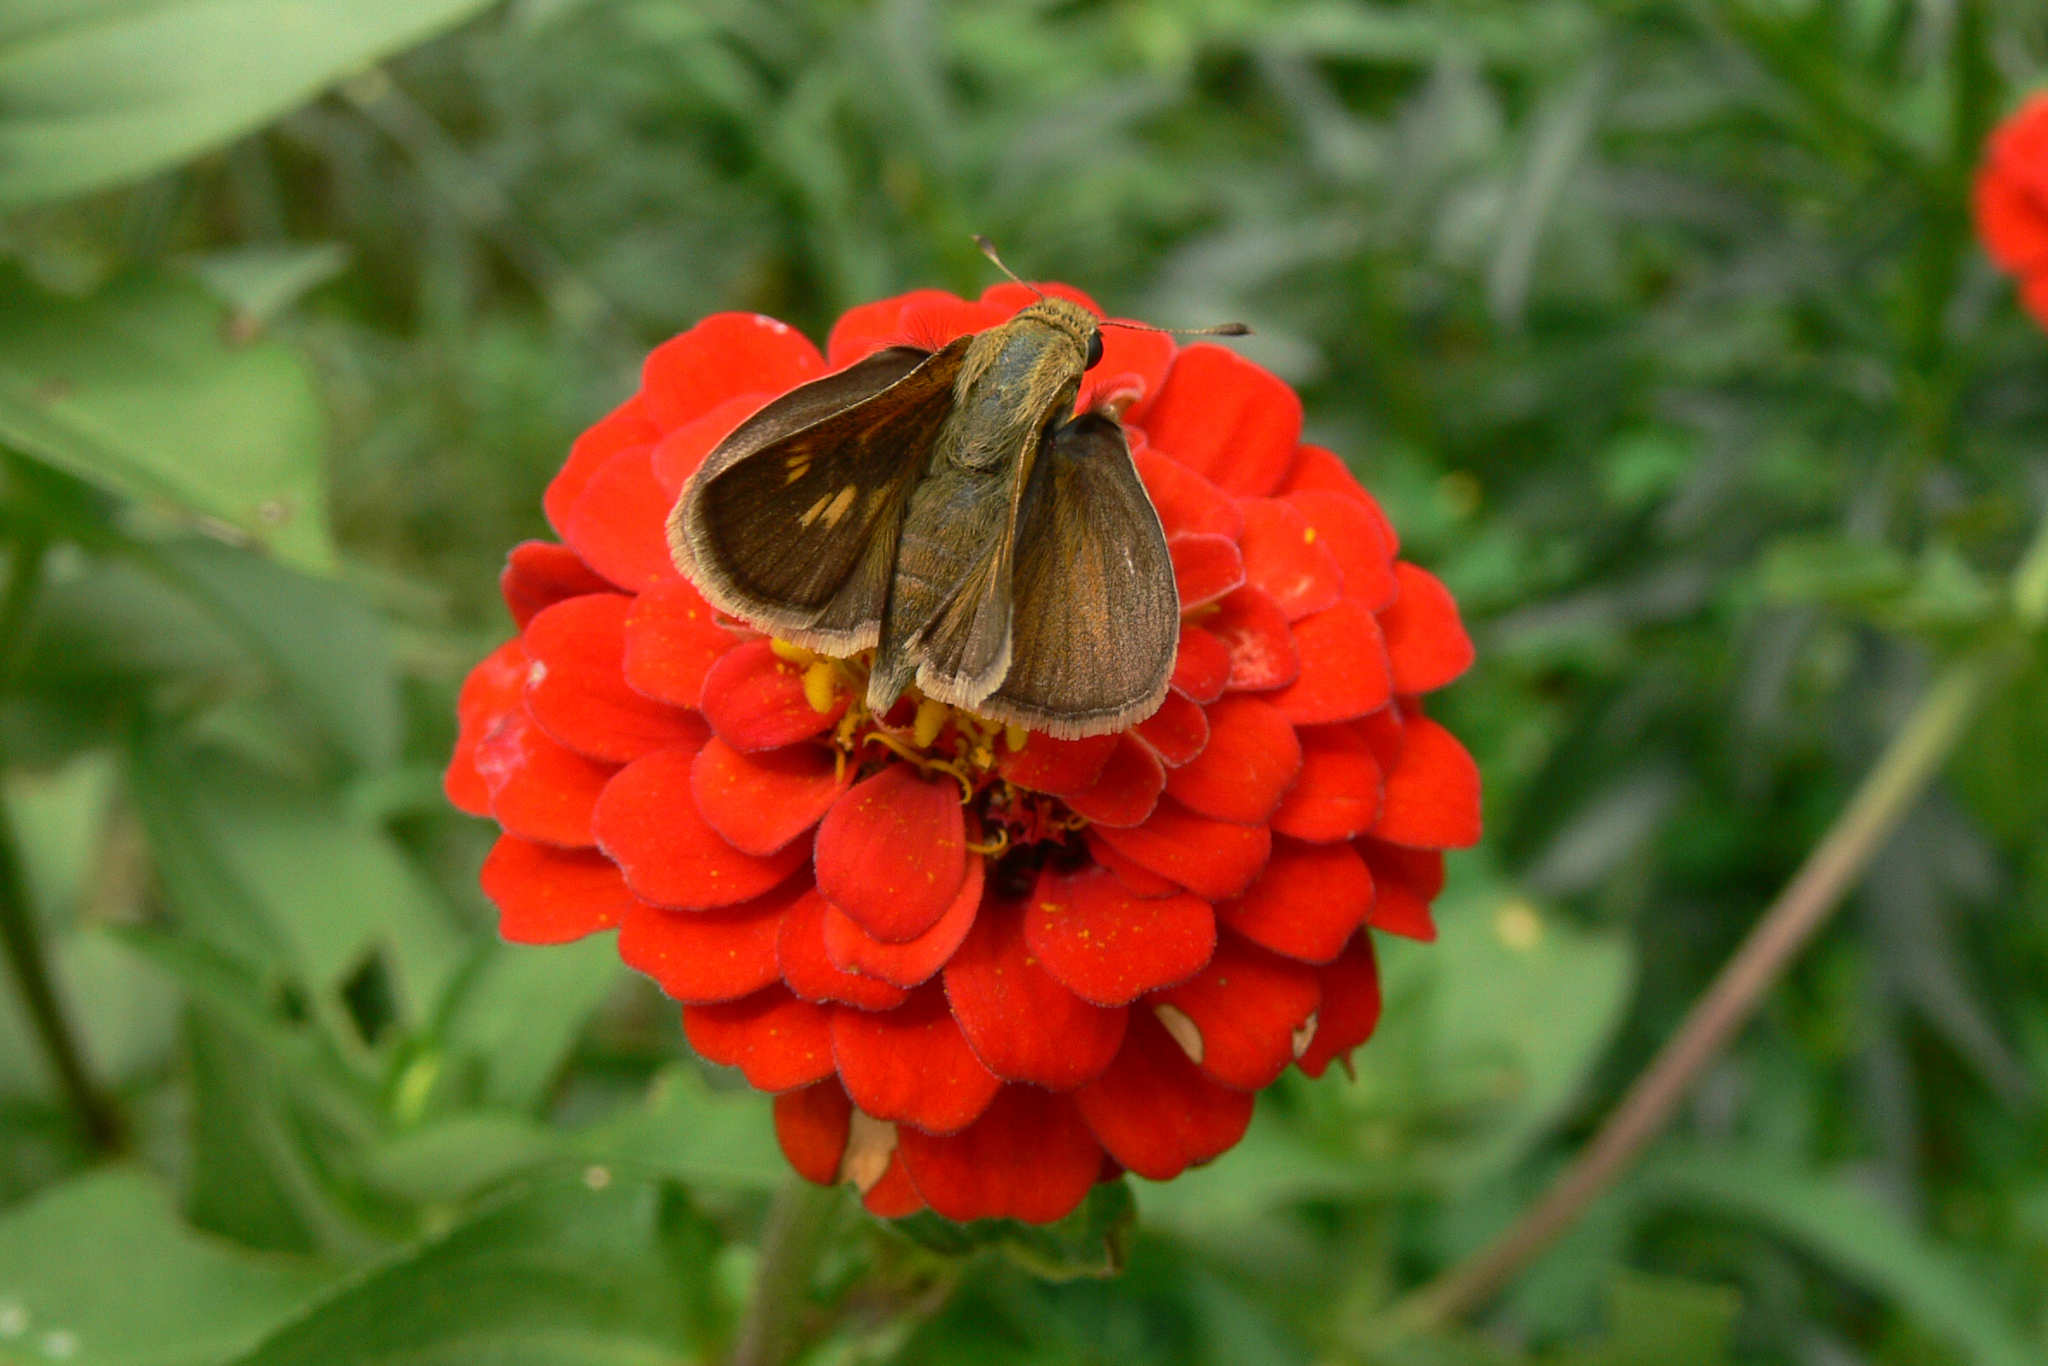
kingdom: Animalia
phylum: Arthropoda
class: Insecta
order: Lepidoptera
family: Hesperiidae
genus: Polites
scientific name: Polites themistocles
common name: Tawny-edged skipper
